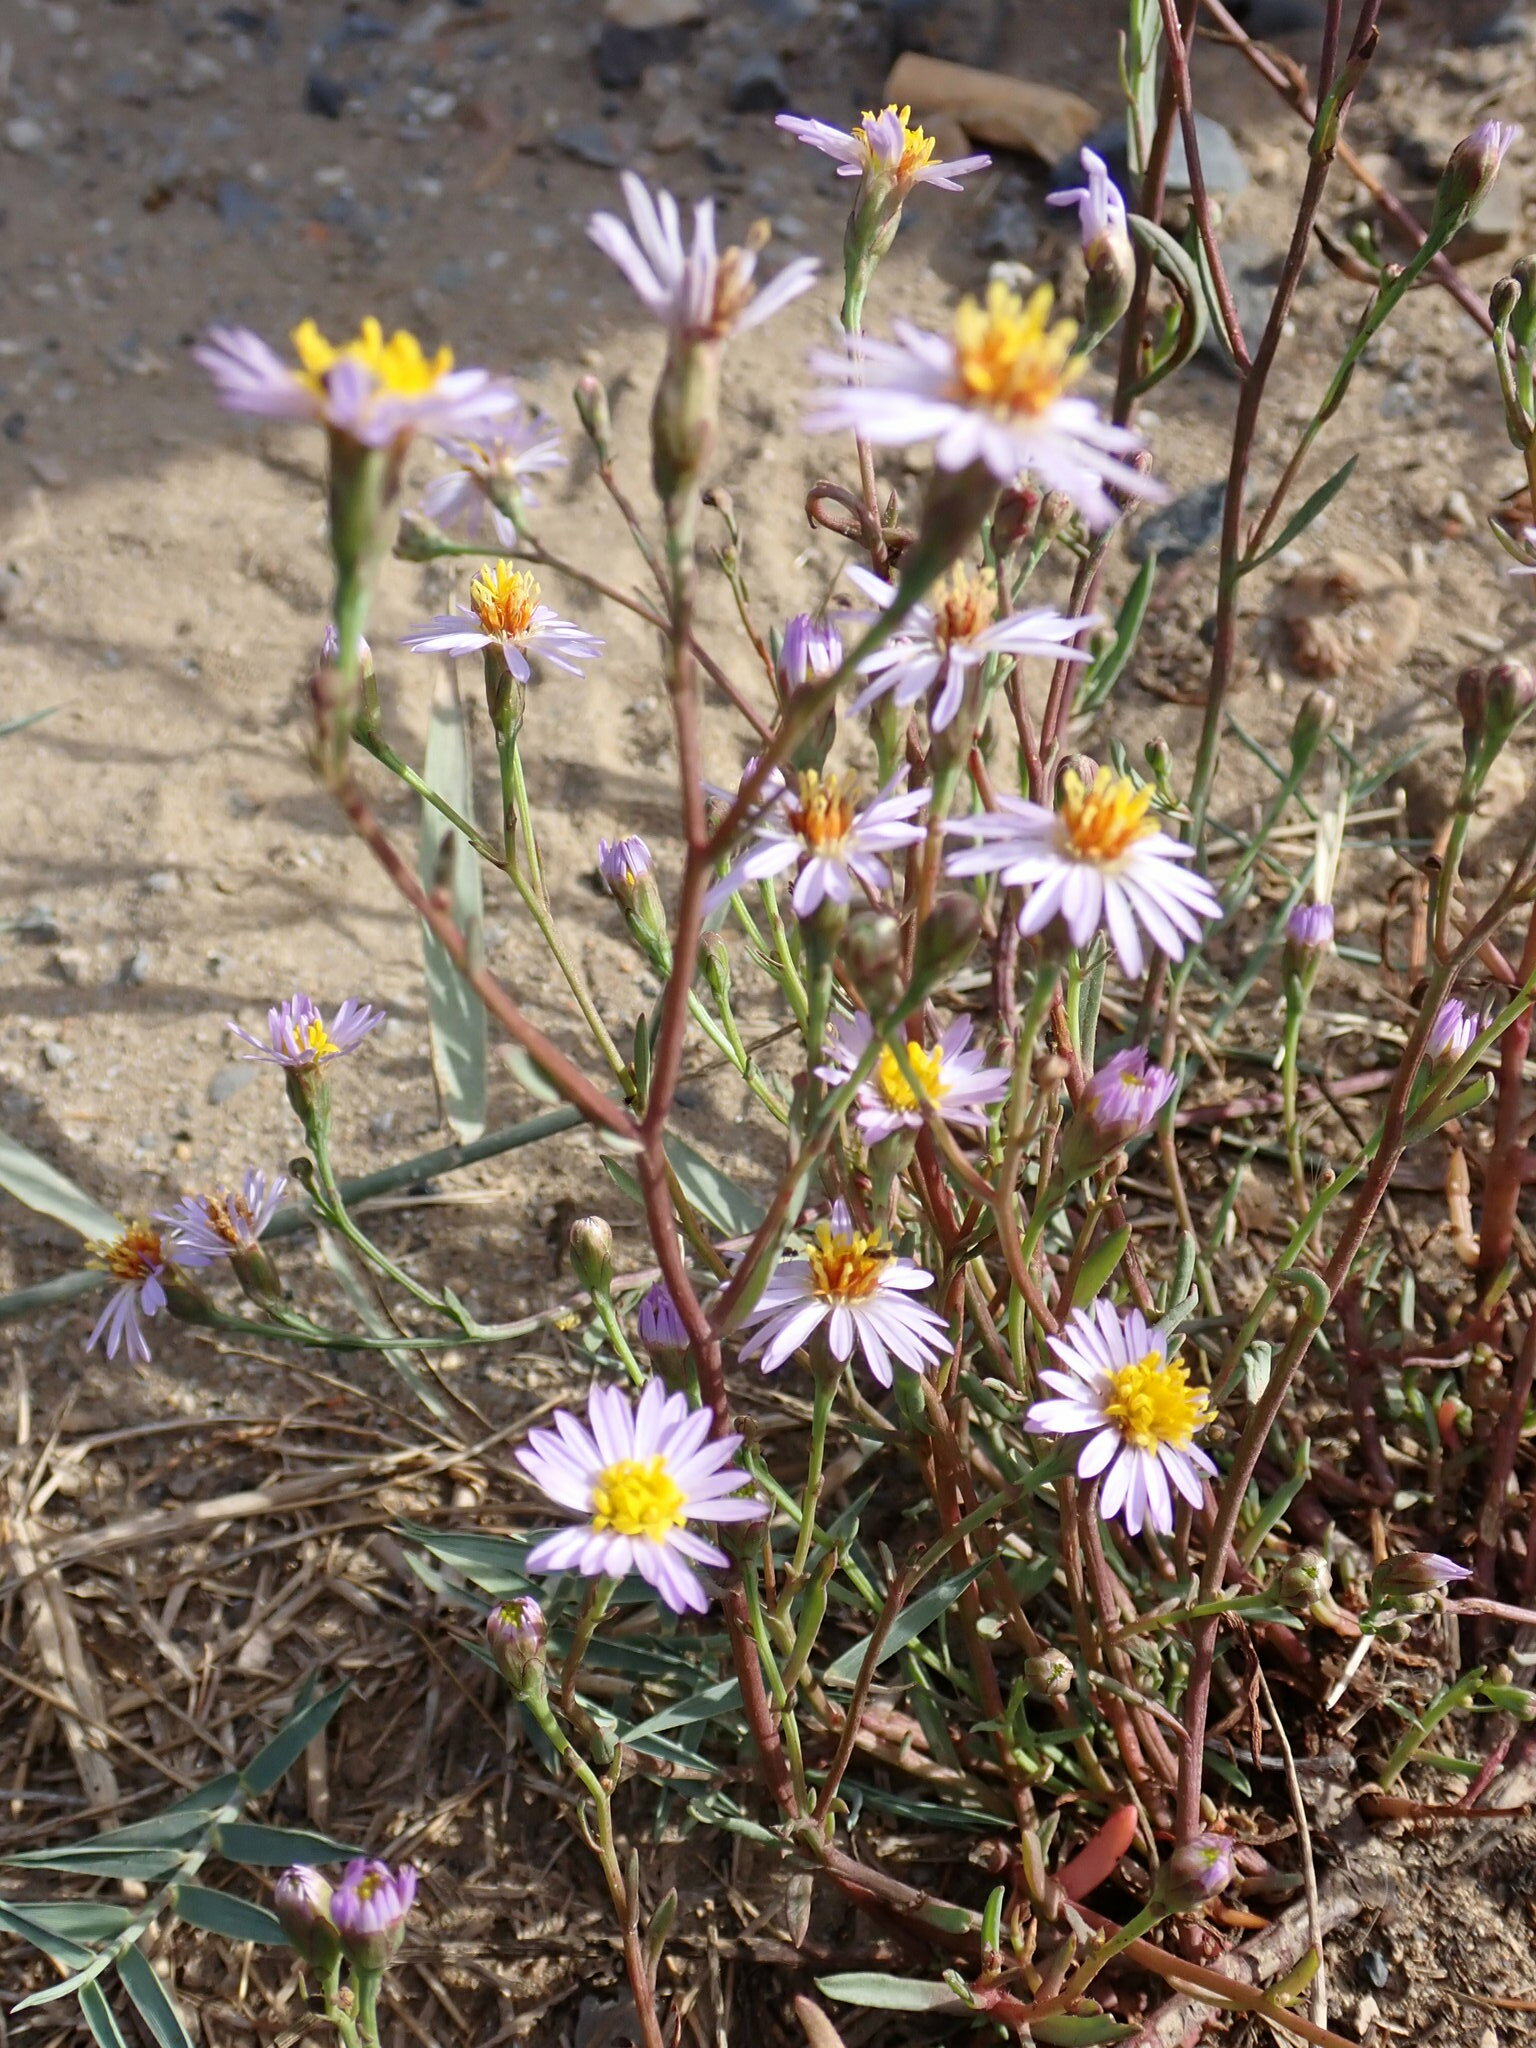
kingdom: Plantae
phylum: Tracheophyta
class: Magnoliopsida
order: Asterales
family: Asteraceae
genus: Tripolium
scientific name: Tripolium pannonicum
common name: Sea aster
